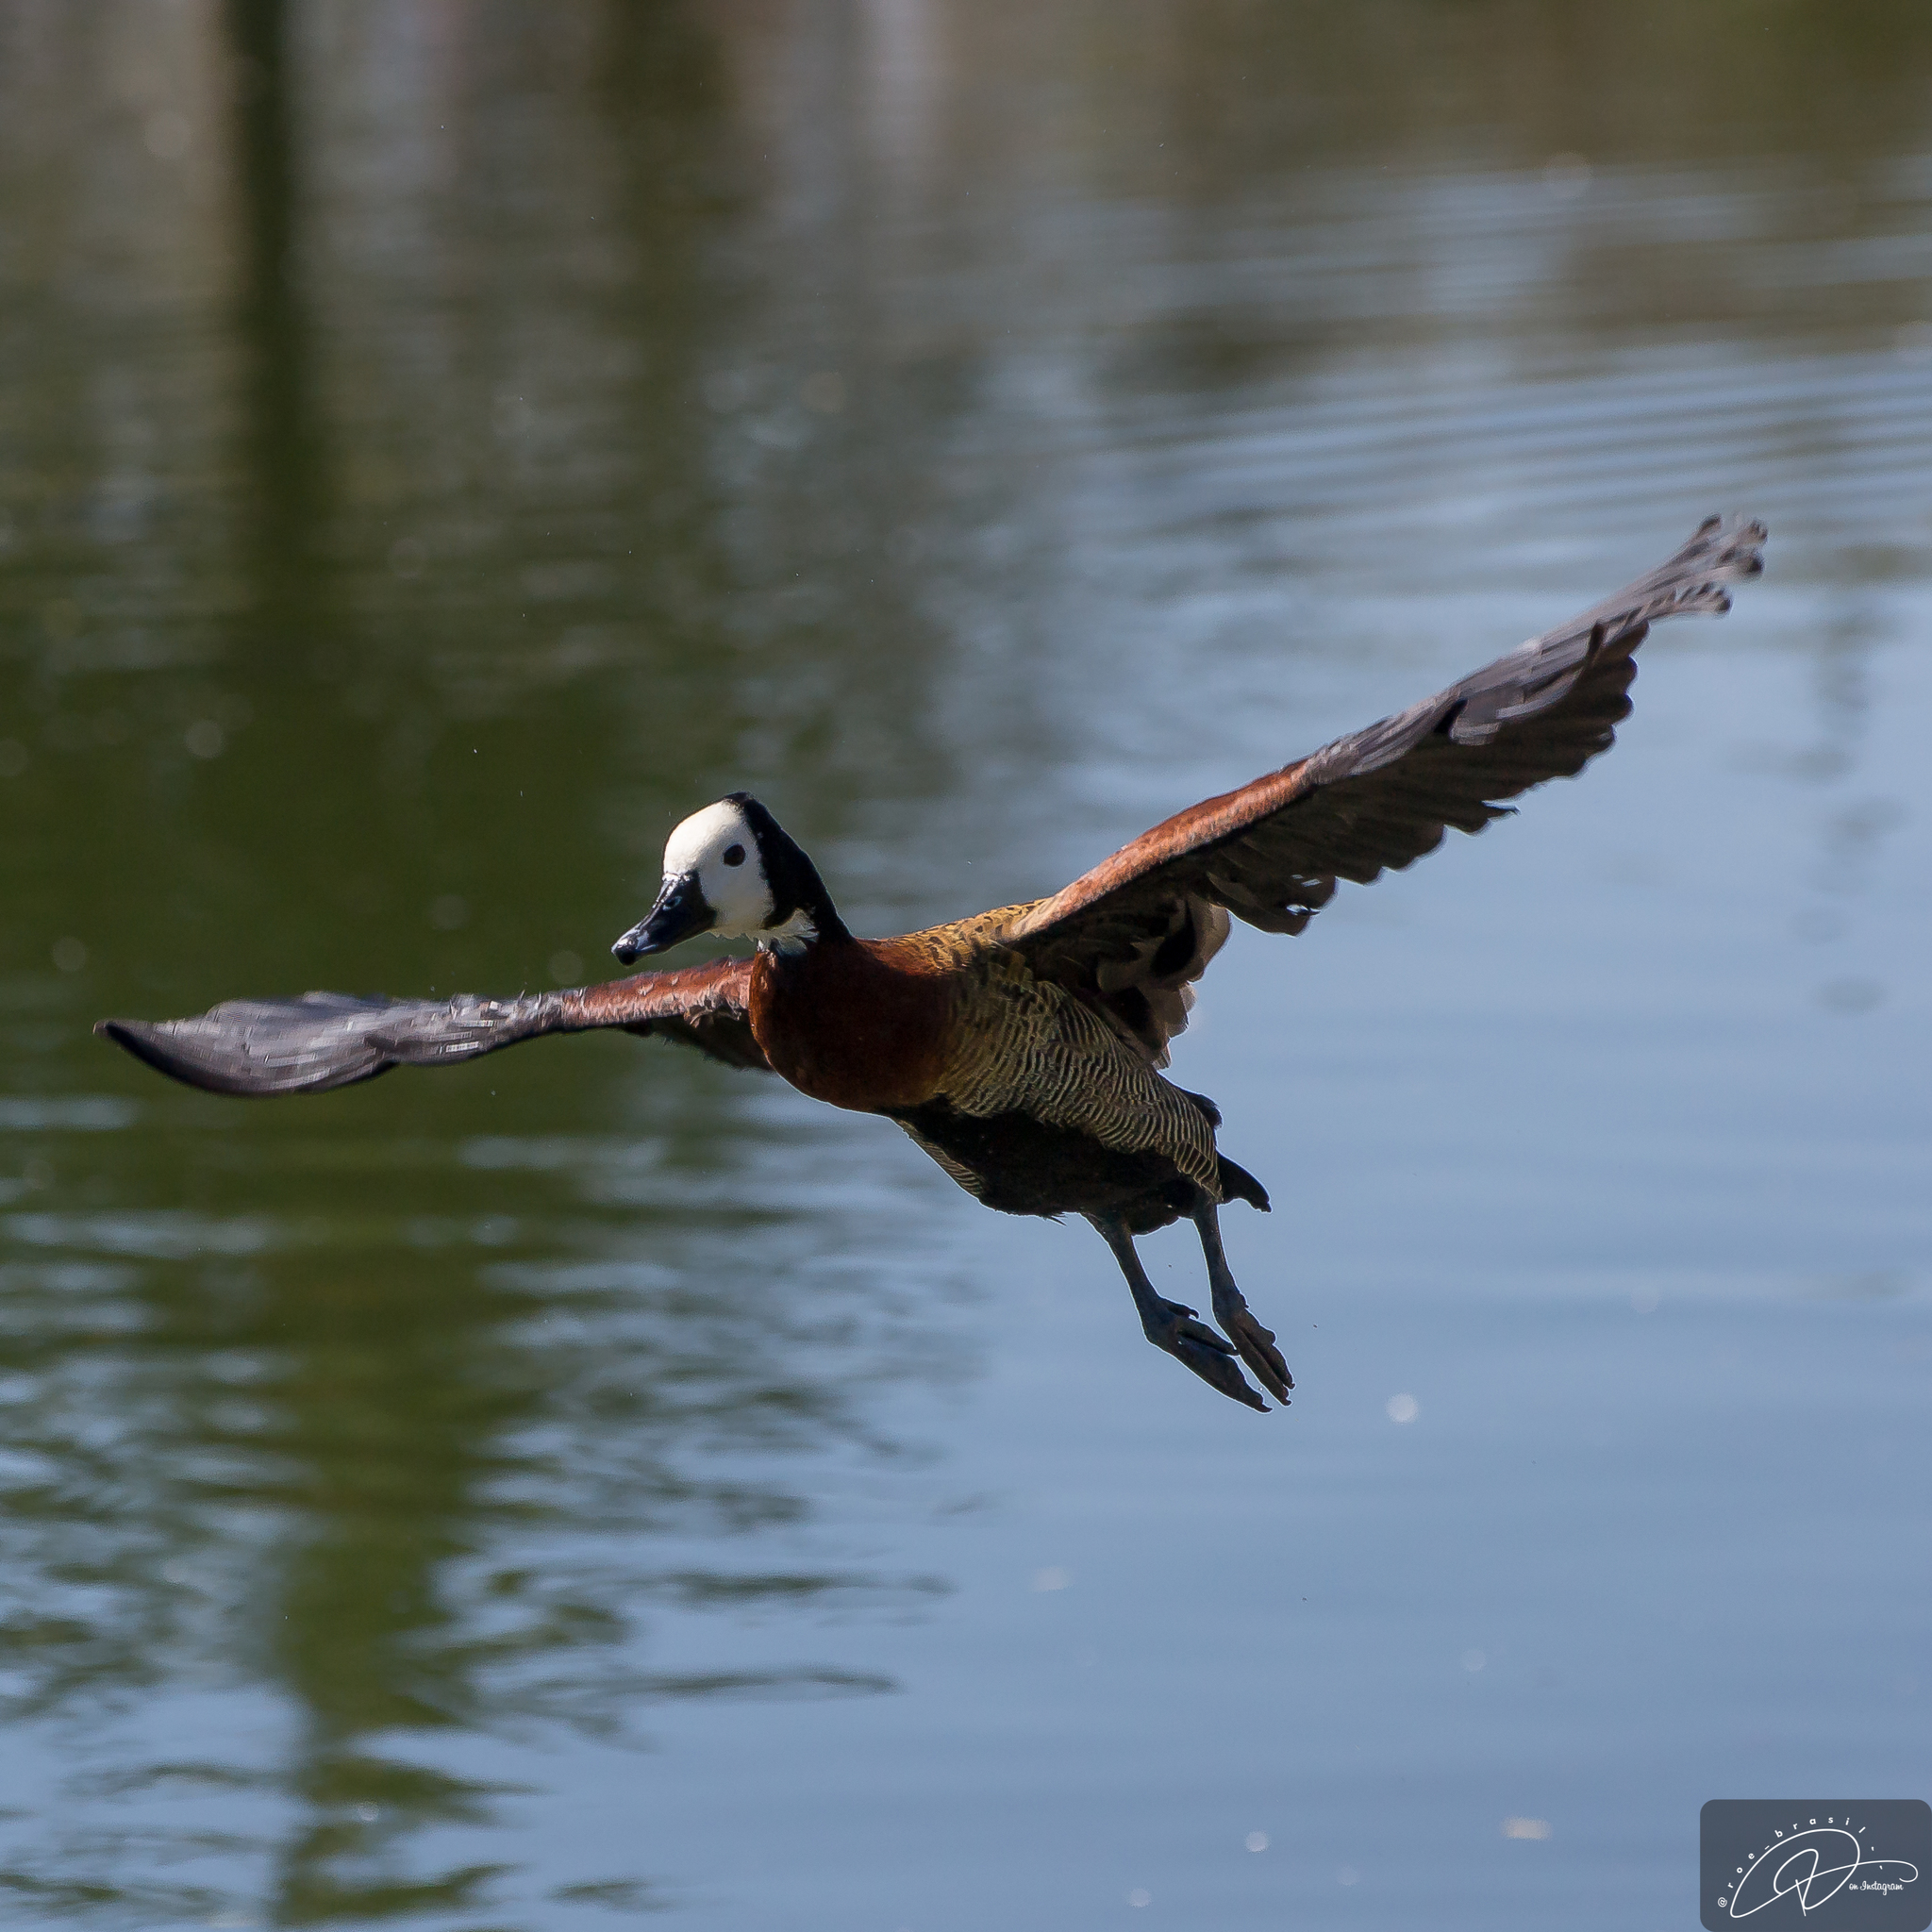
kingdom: Animalia
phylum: Chordata
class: Aves
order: Anseriformes
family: Anatidae
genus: Dendrocygna
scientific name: Dendrocygna viduata
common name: White-faced whistling duck
